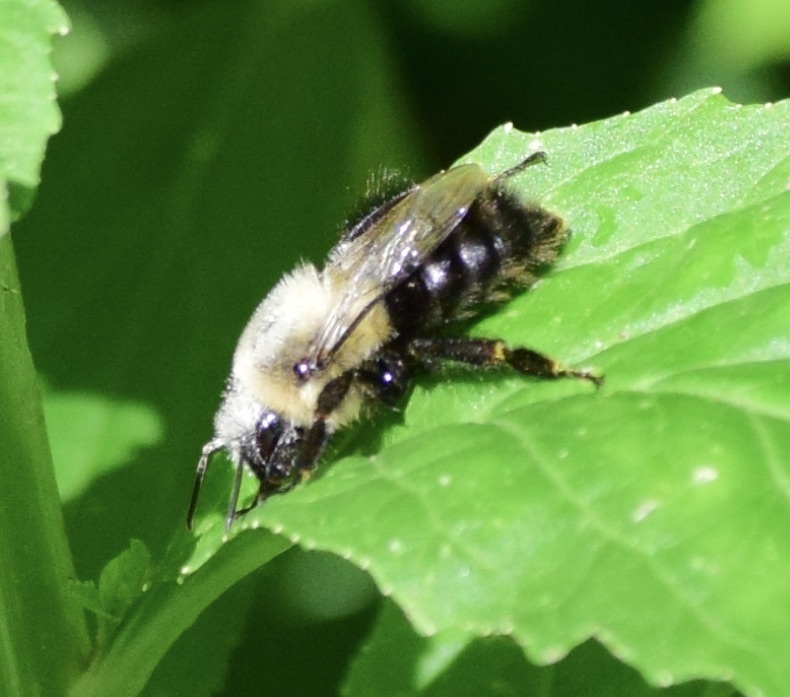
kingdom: Animalia
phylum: Arthropoda
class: Insecta
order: Hymenoptera
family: Apidae
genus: Bombus
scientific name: Bombus impatiens
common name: Common eastern bumble bee
